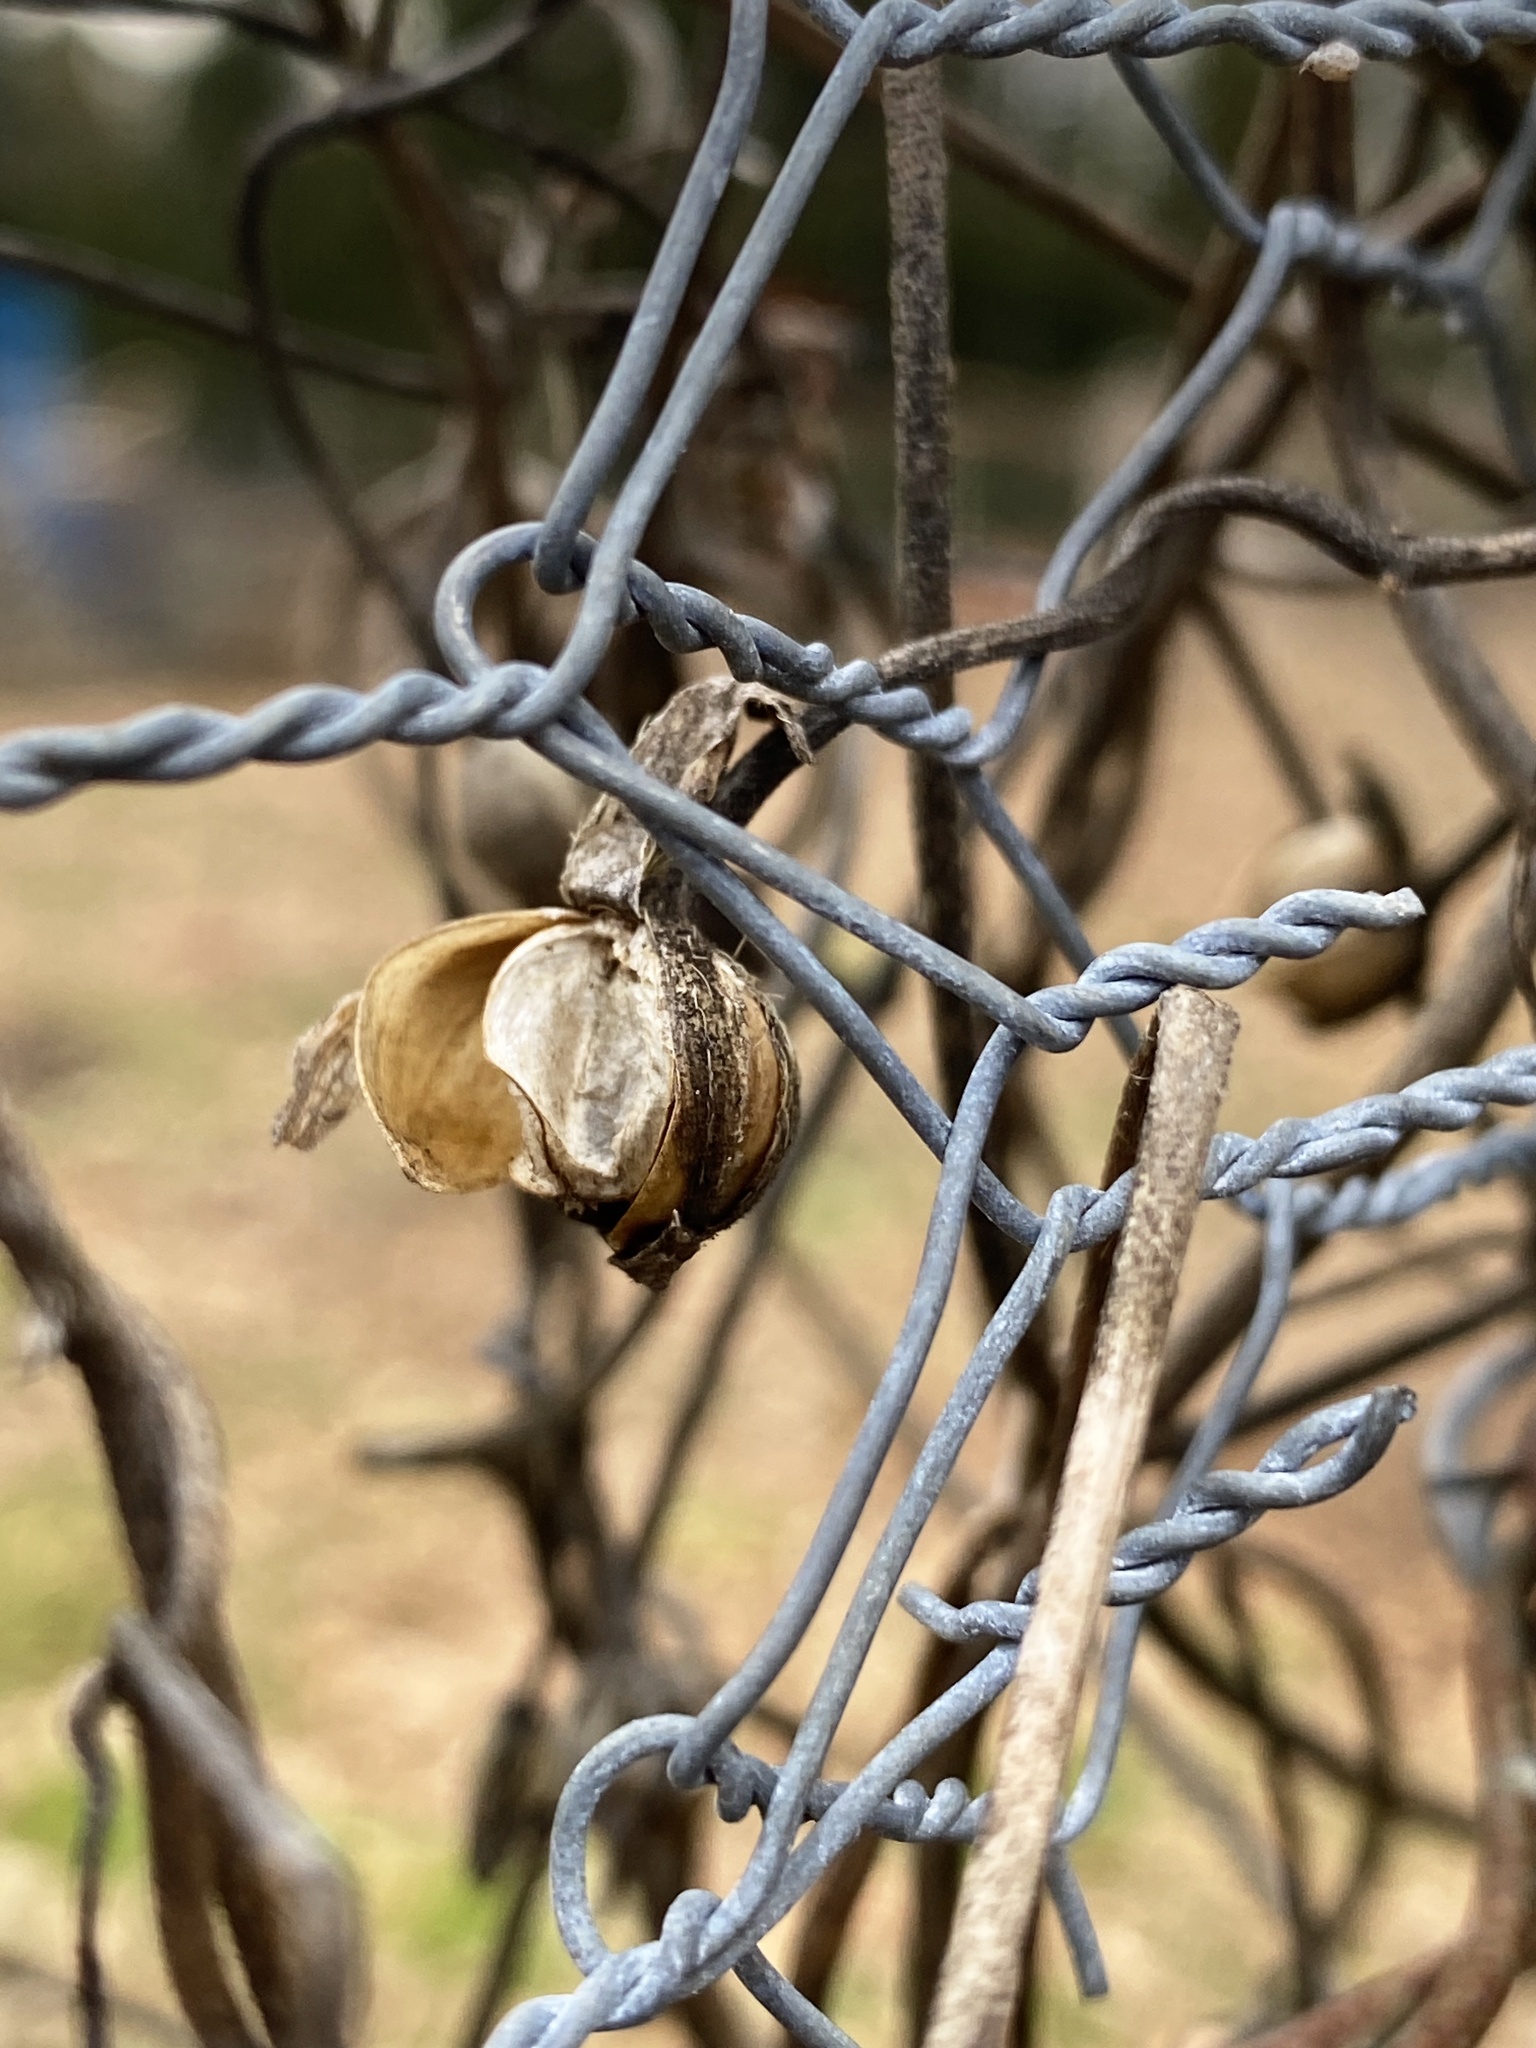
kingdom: Plantae
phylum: Tracheophyta
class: Magnoliopsida
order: Solanales
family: Convolvulaceae
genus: Ipomoea
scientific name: Ipomoea purpurea
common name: Common morning-glory
